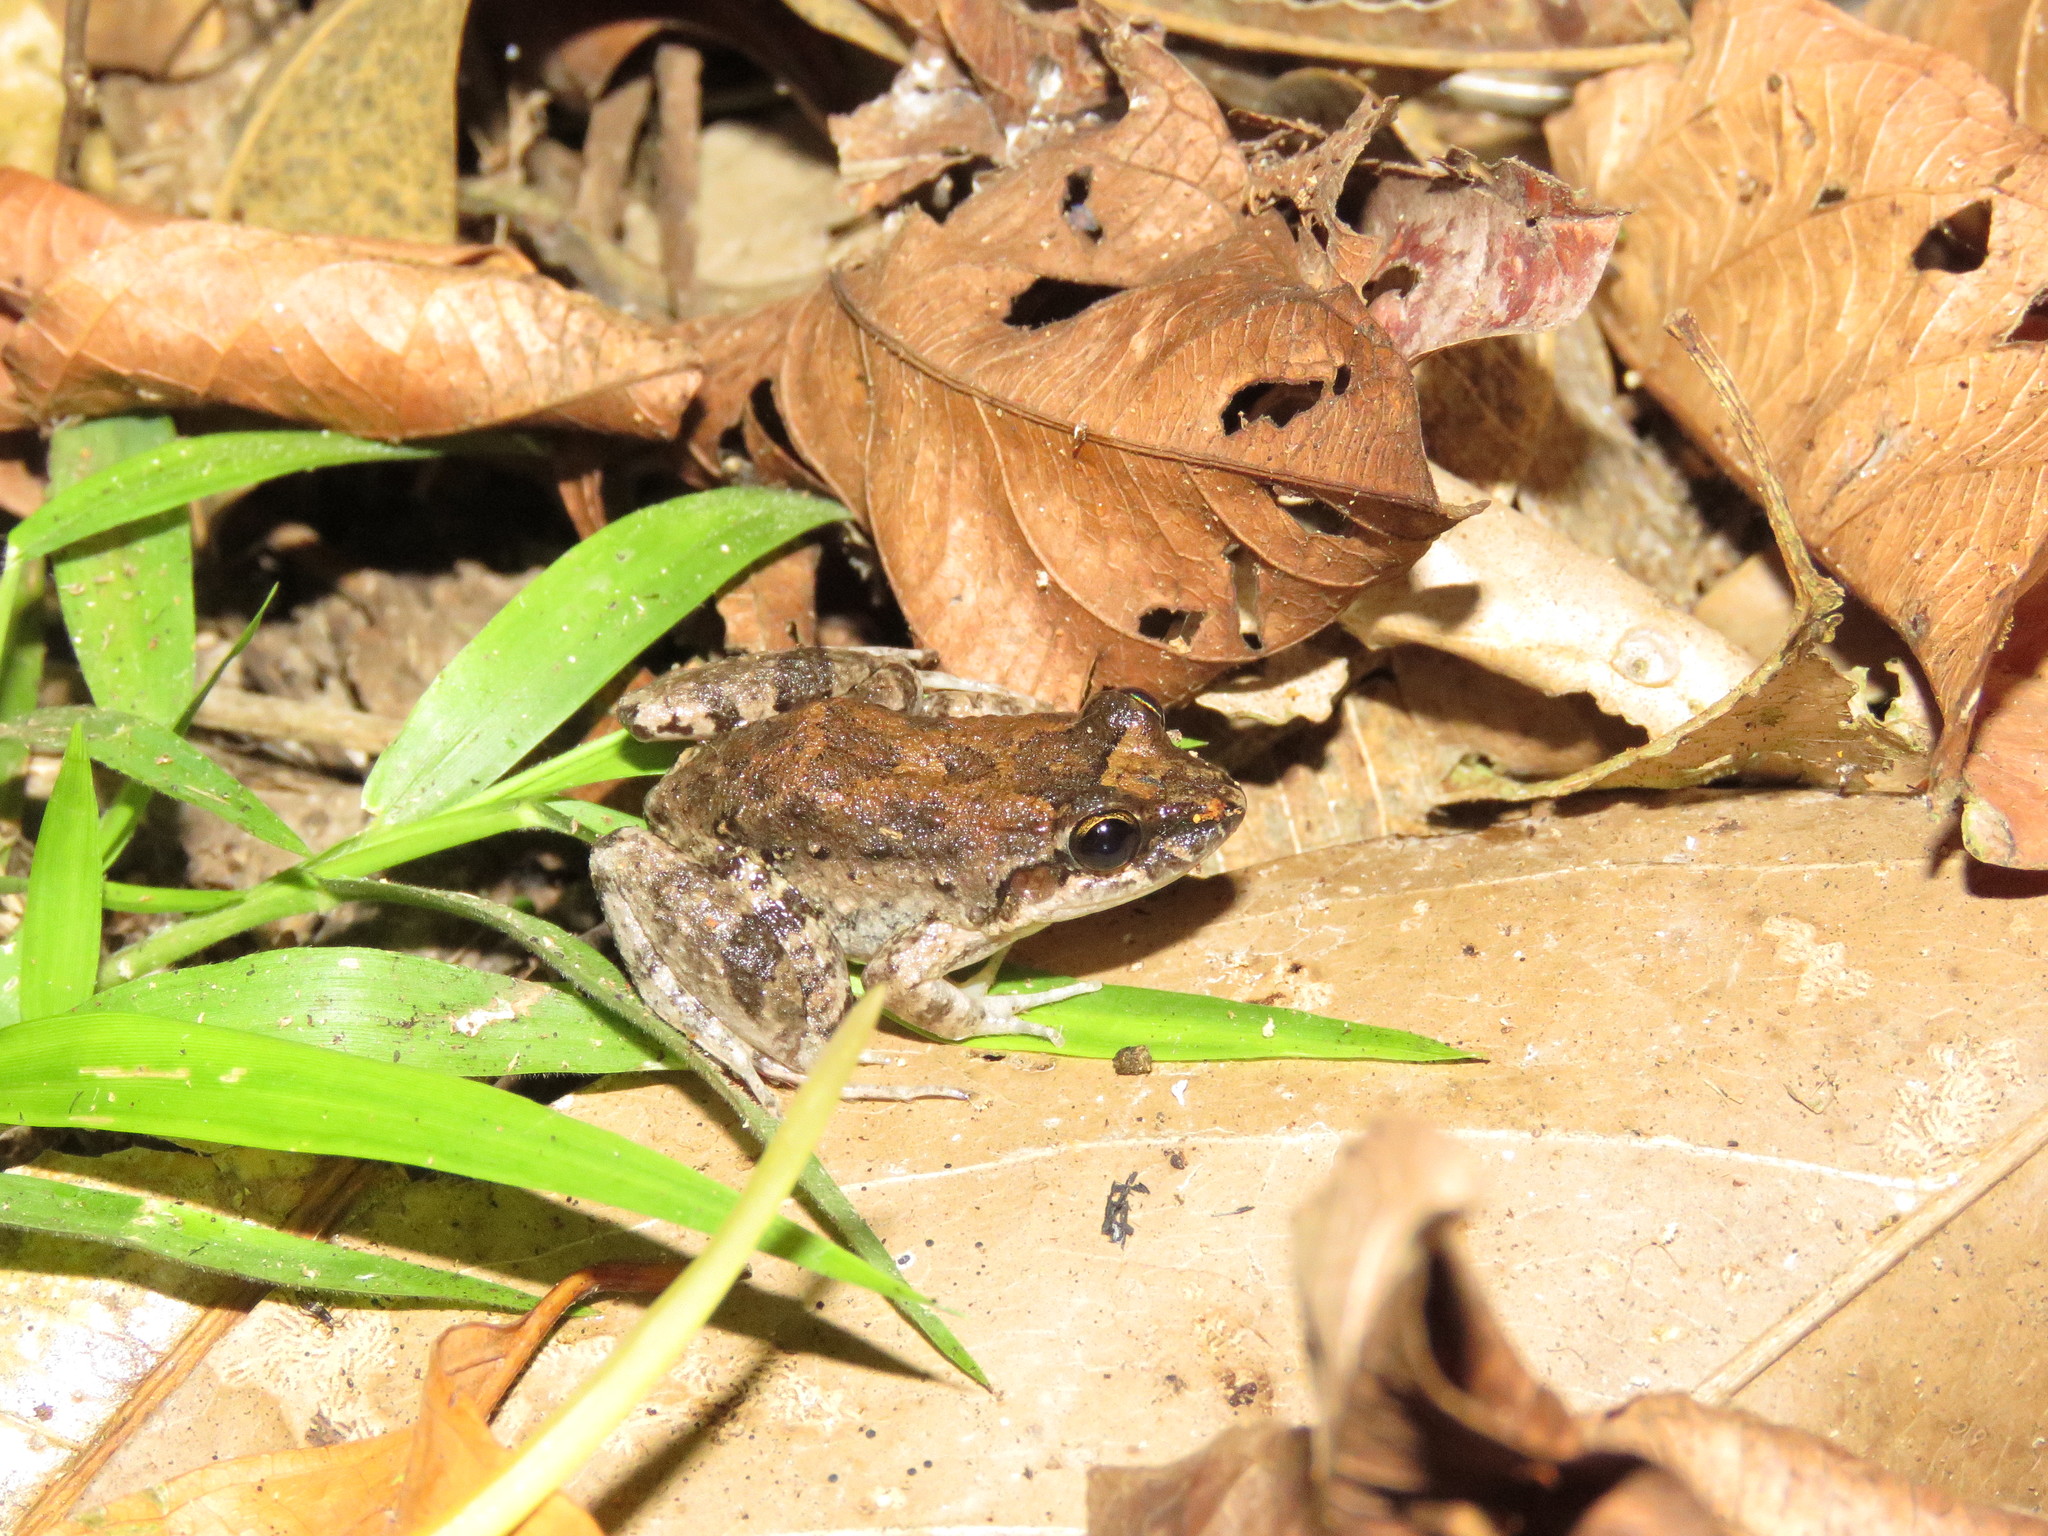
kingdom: Animalia
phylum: Chordata
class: Amphibia
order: Anura
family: Leptodactylidae
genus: Leptodactylus
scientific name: Leptodactylus leptodactyloides
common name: Common thin-toed frog
